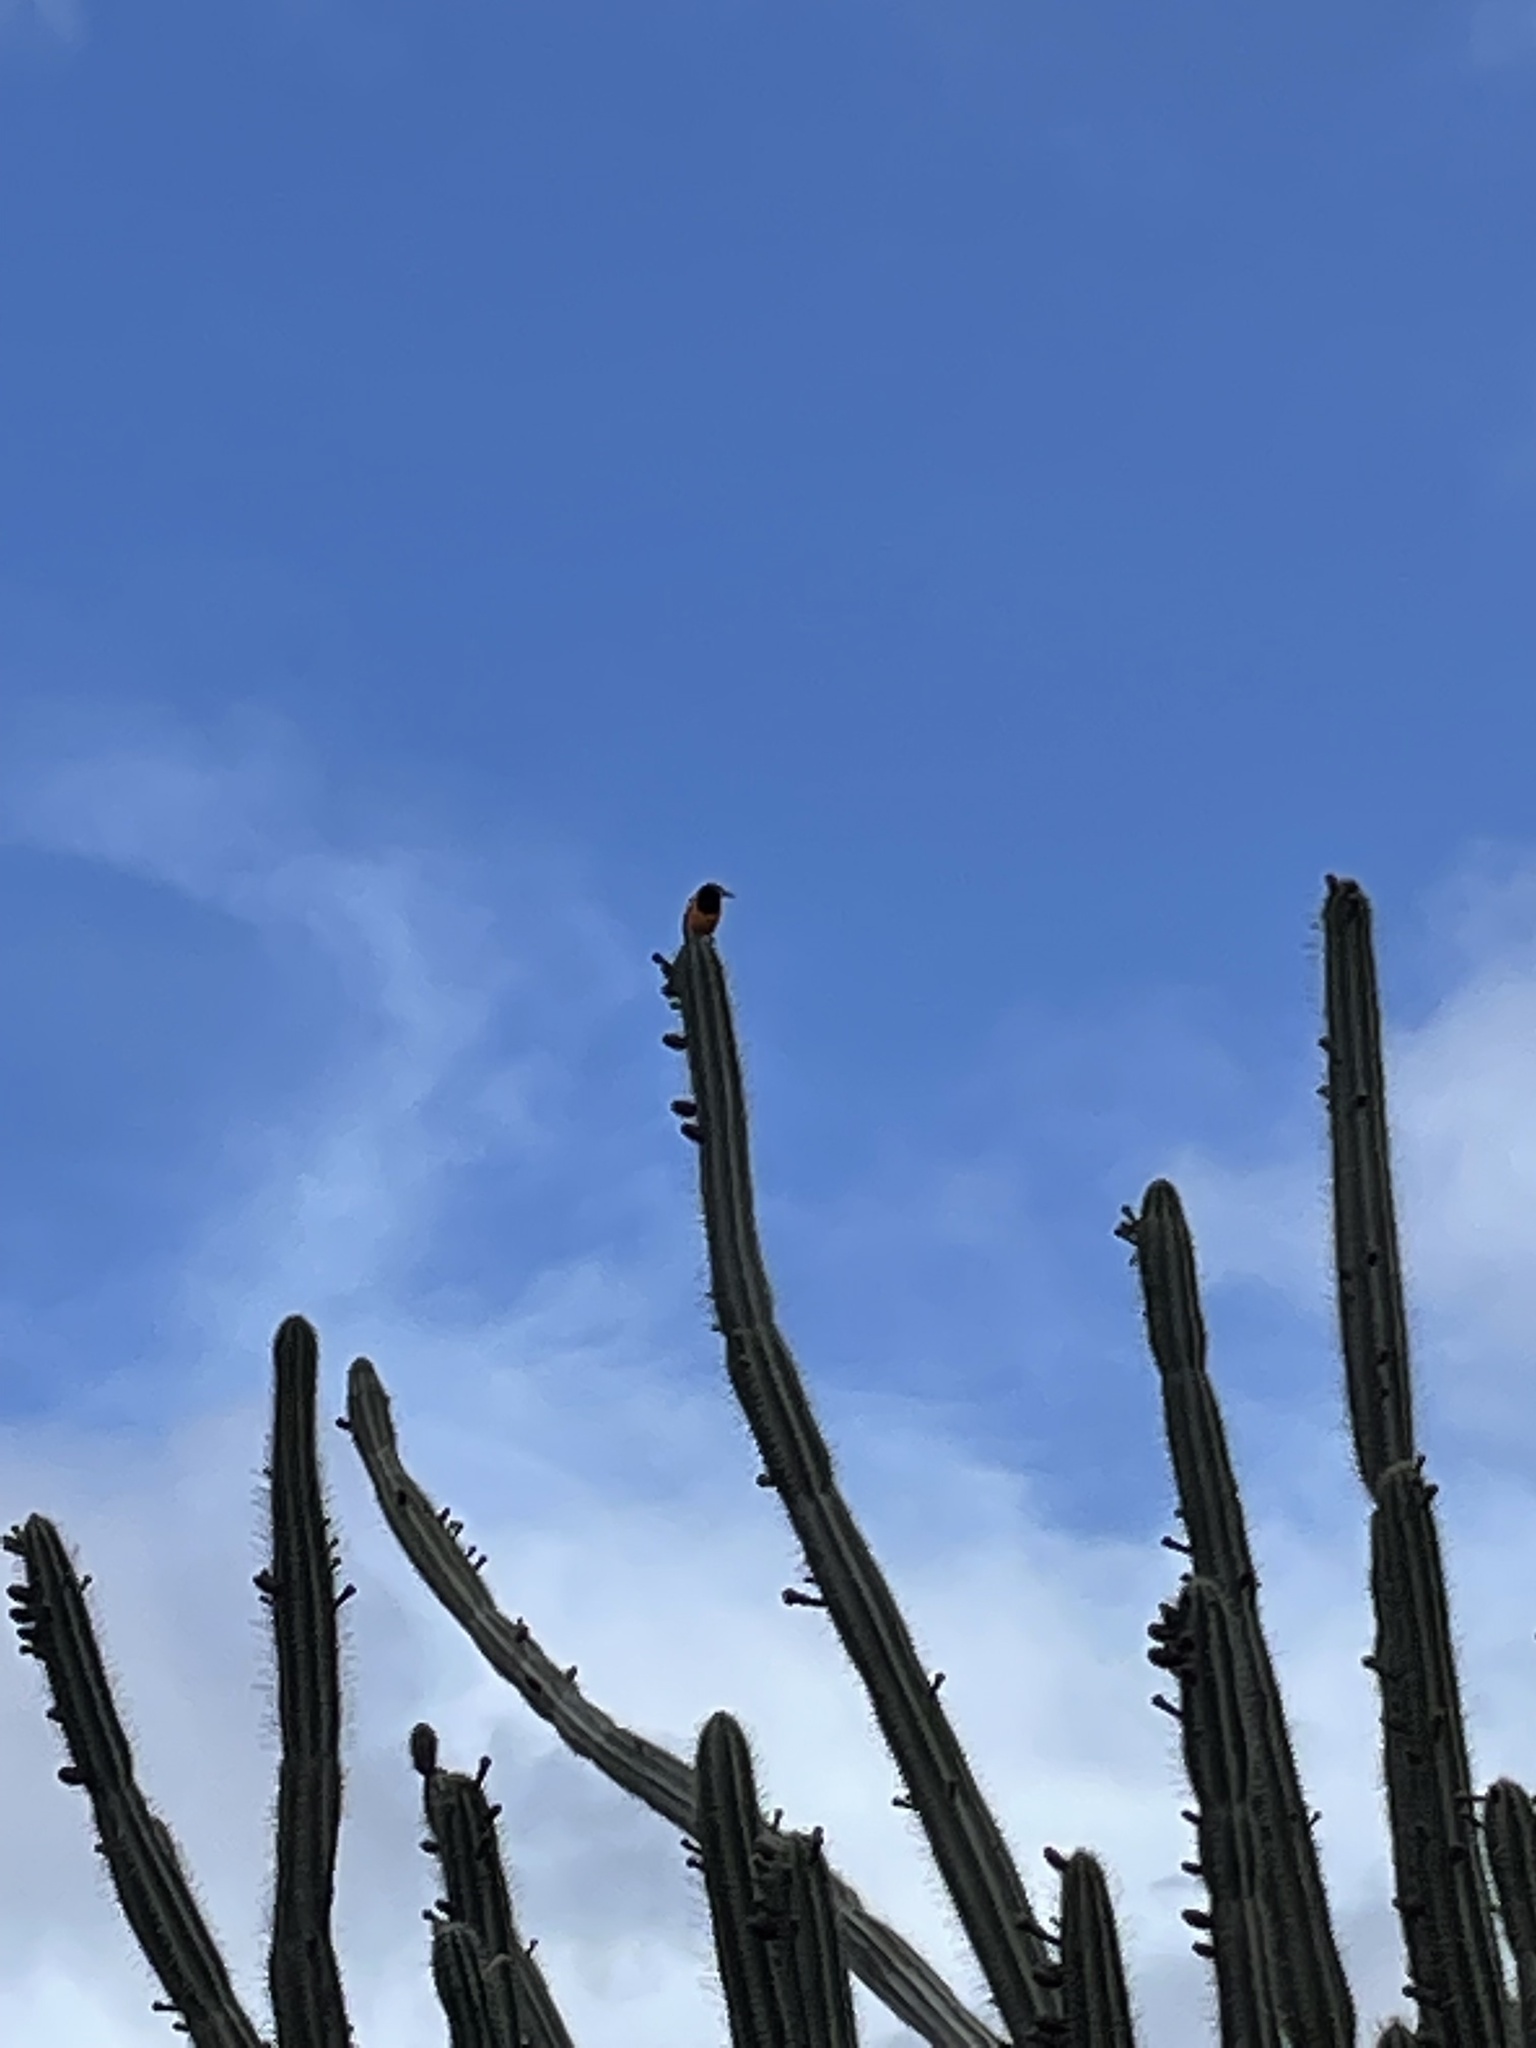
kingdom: Plantae
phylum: Tracheophyta
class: Magnoliopsida
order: Caryophyllales
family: Cactaceae
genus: Cereus
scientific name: Cereus repandus
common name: Sweetpotato cactus
